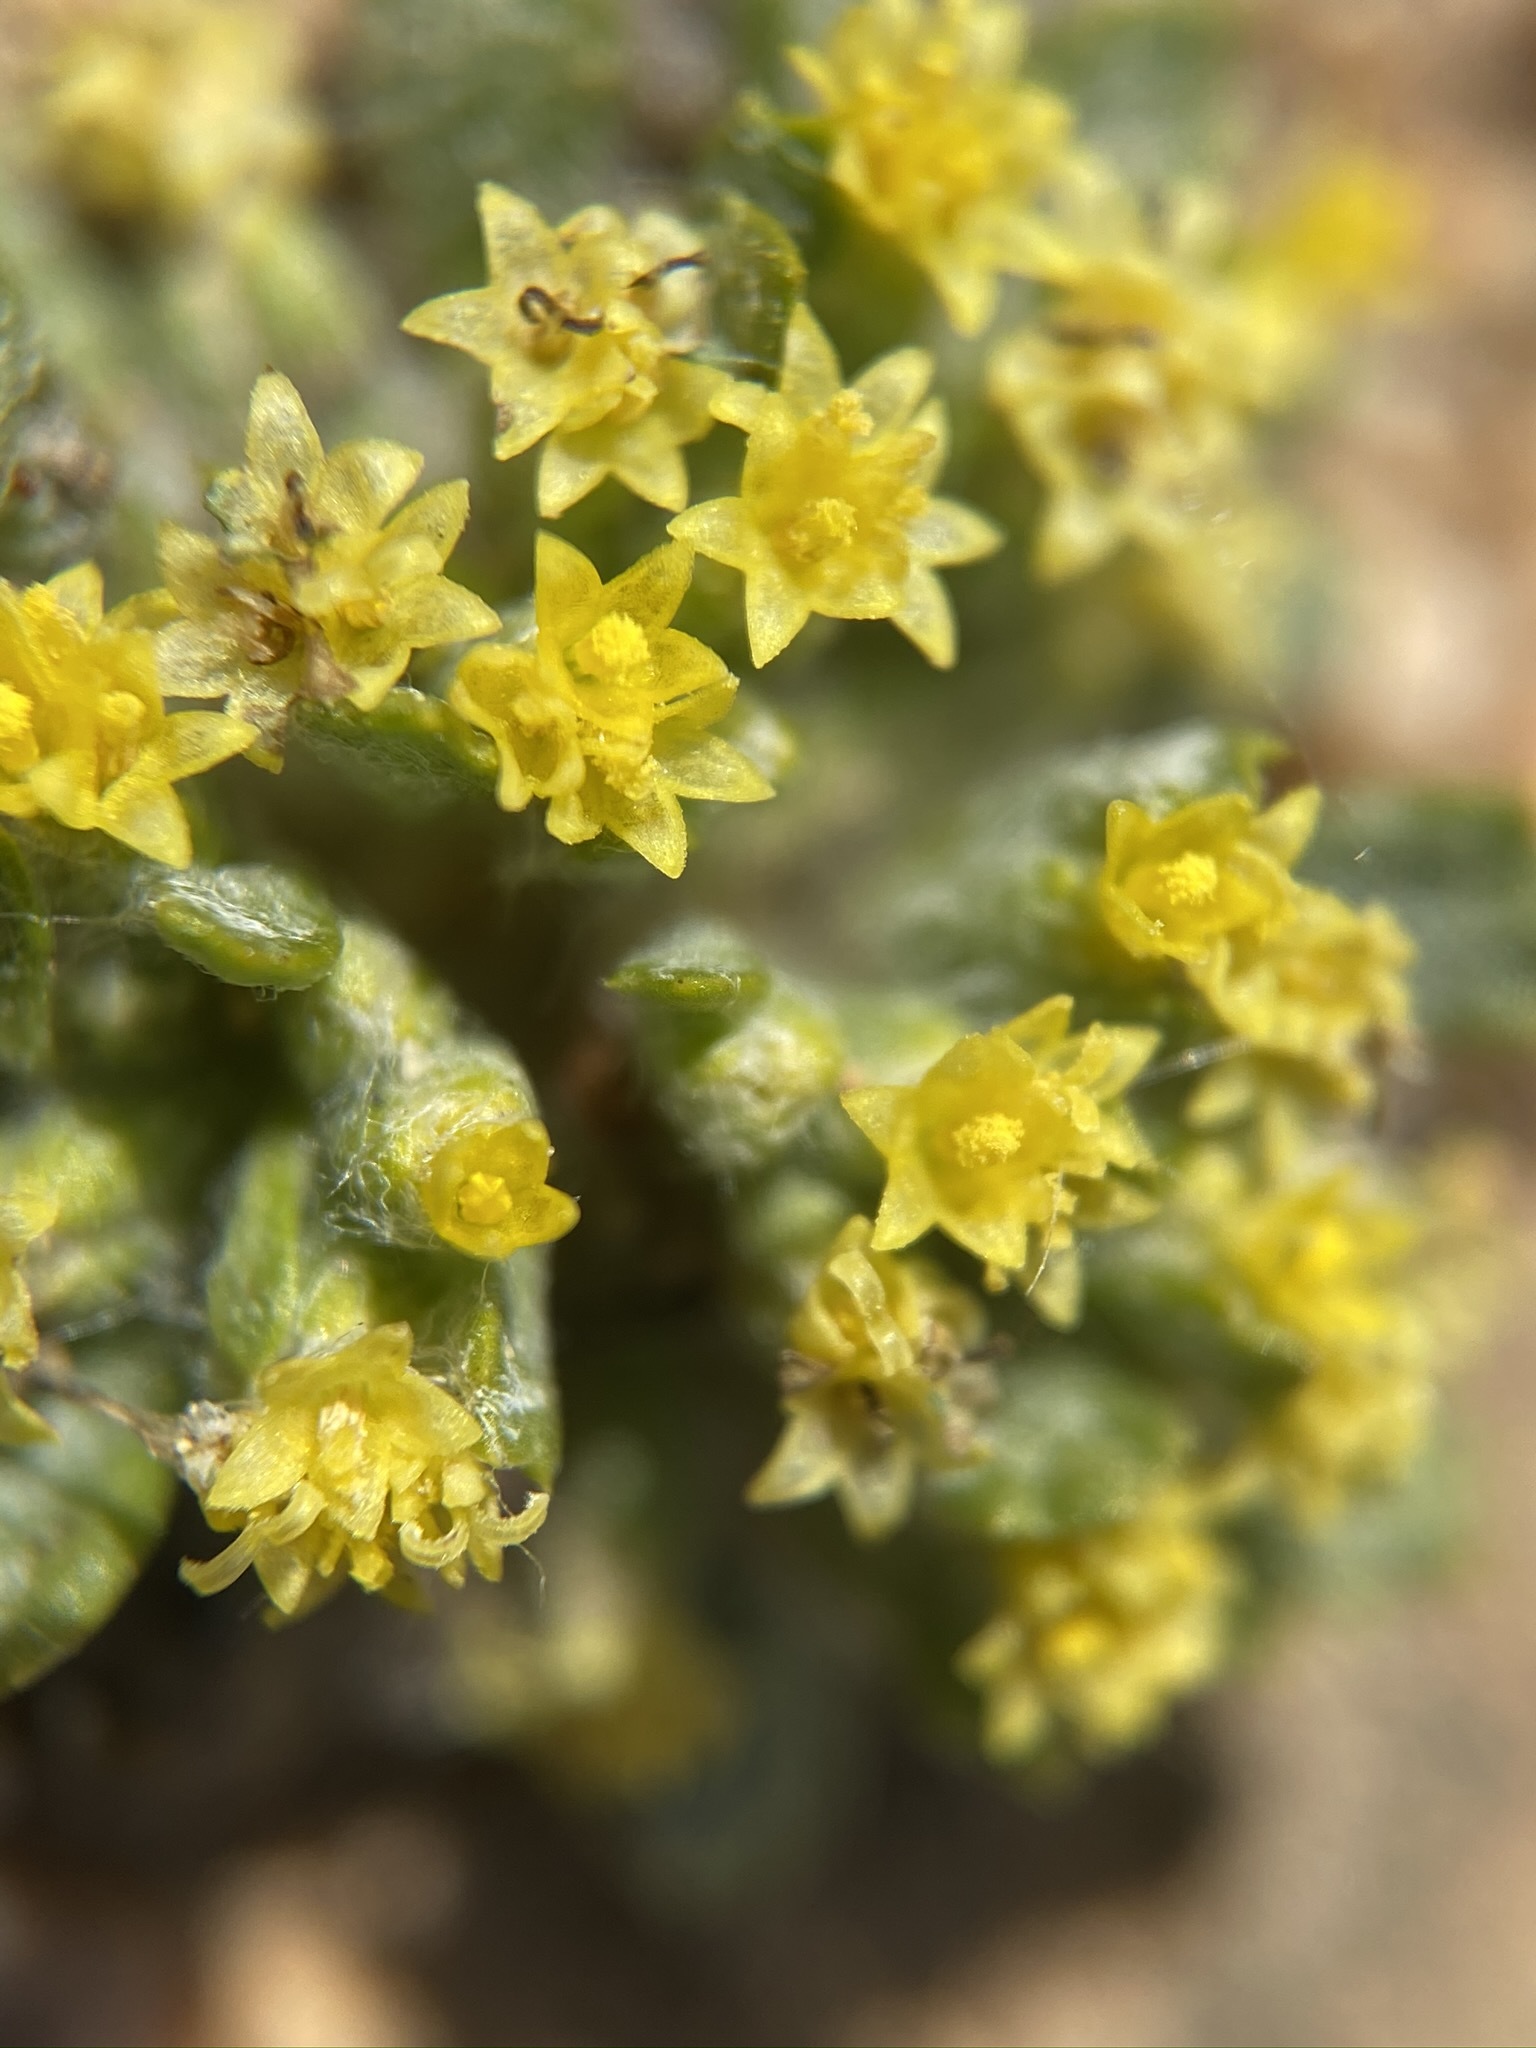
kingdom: Plantae
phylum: Tracheophyta
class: Magnoliopsida
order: Asterales
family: Asteraceae
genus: Eriophyllum
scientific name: Eriophyllum mohavense
